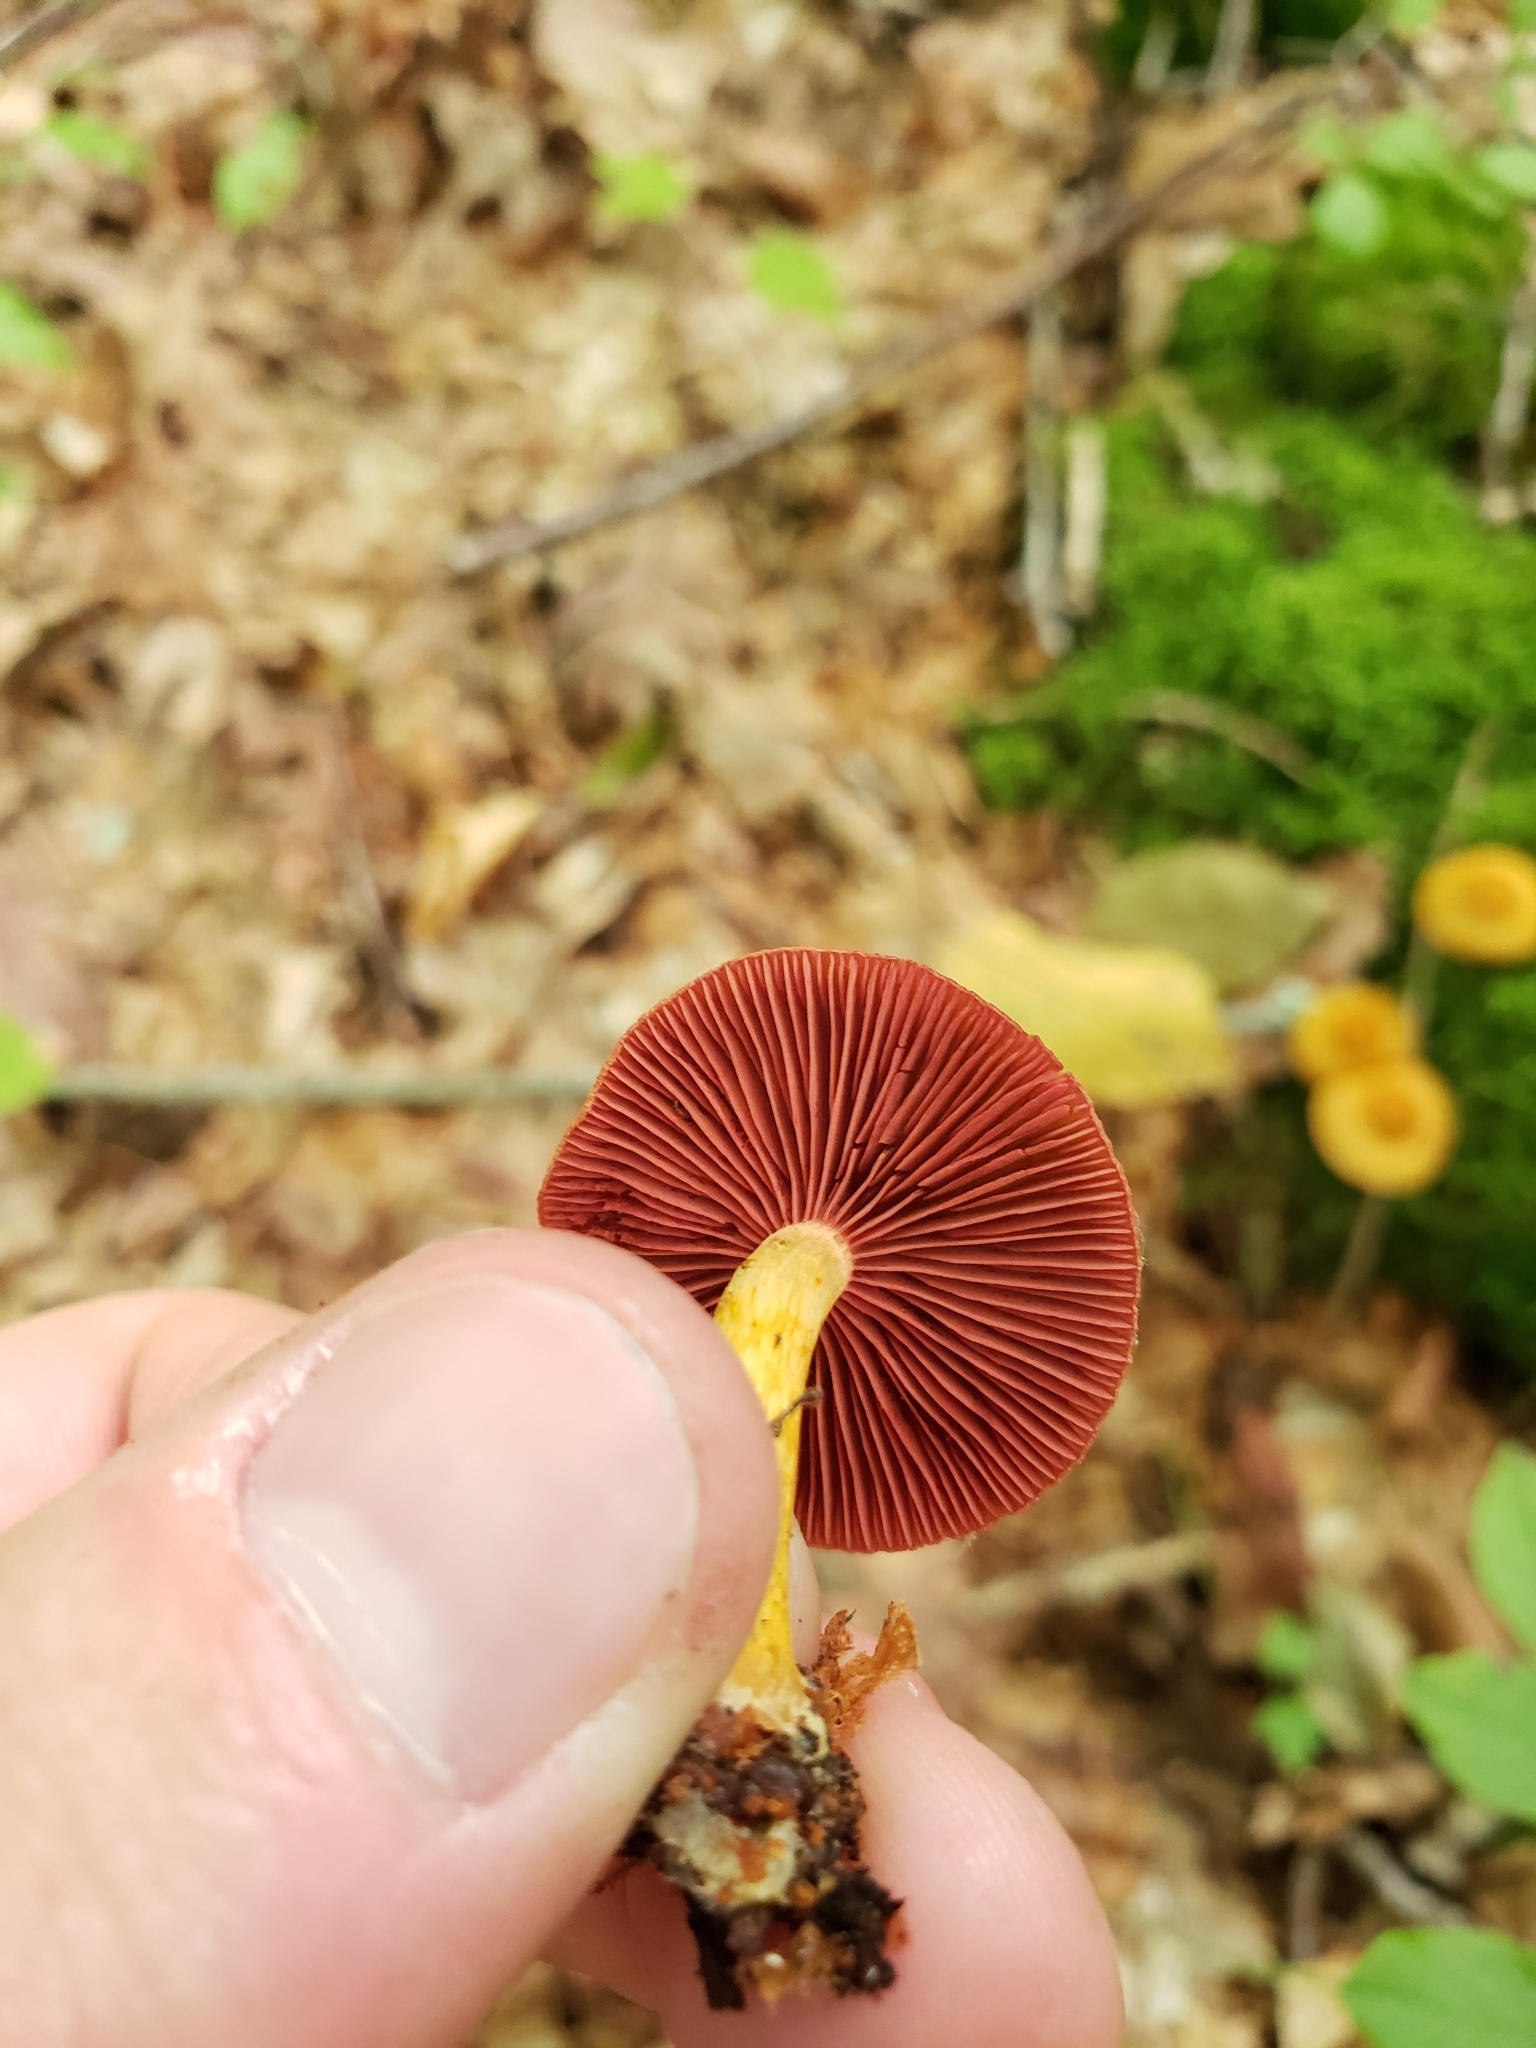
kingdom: Fungi
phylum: Basidiomycota
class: Agaricomycetes
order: Agaricales
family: Cortinariaceae
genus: Cortinarius
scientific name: Cortinarius semisanguineus
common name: Surprise webcap
